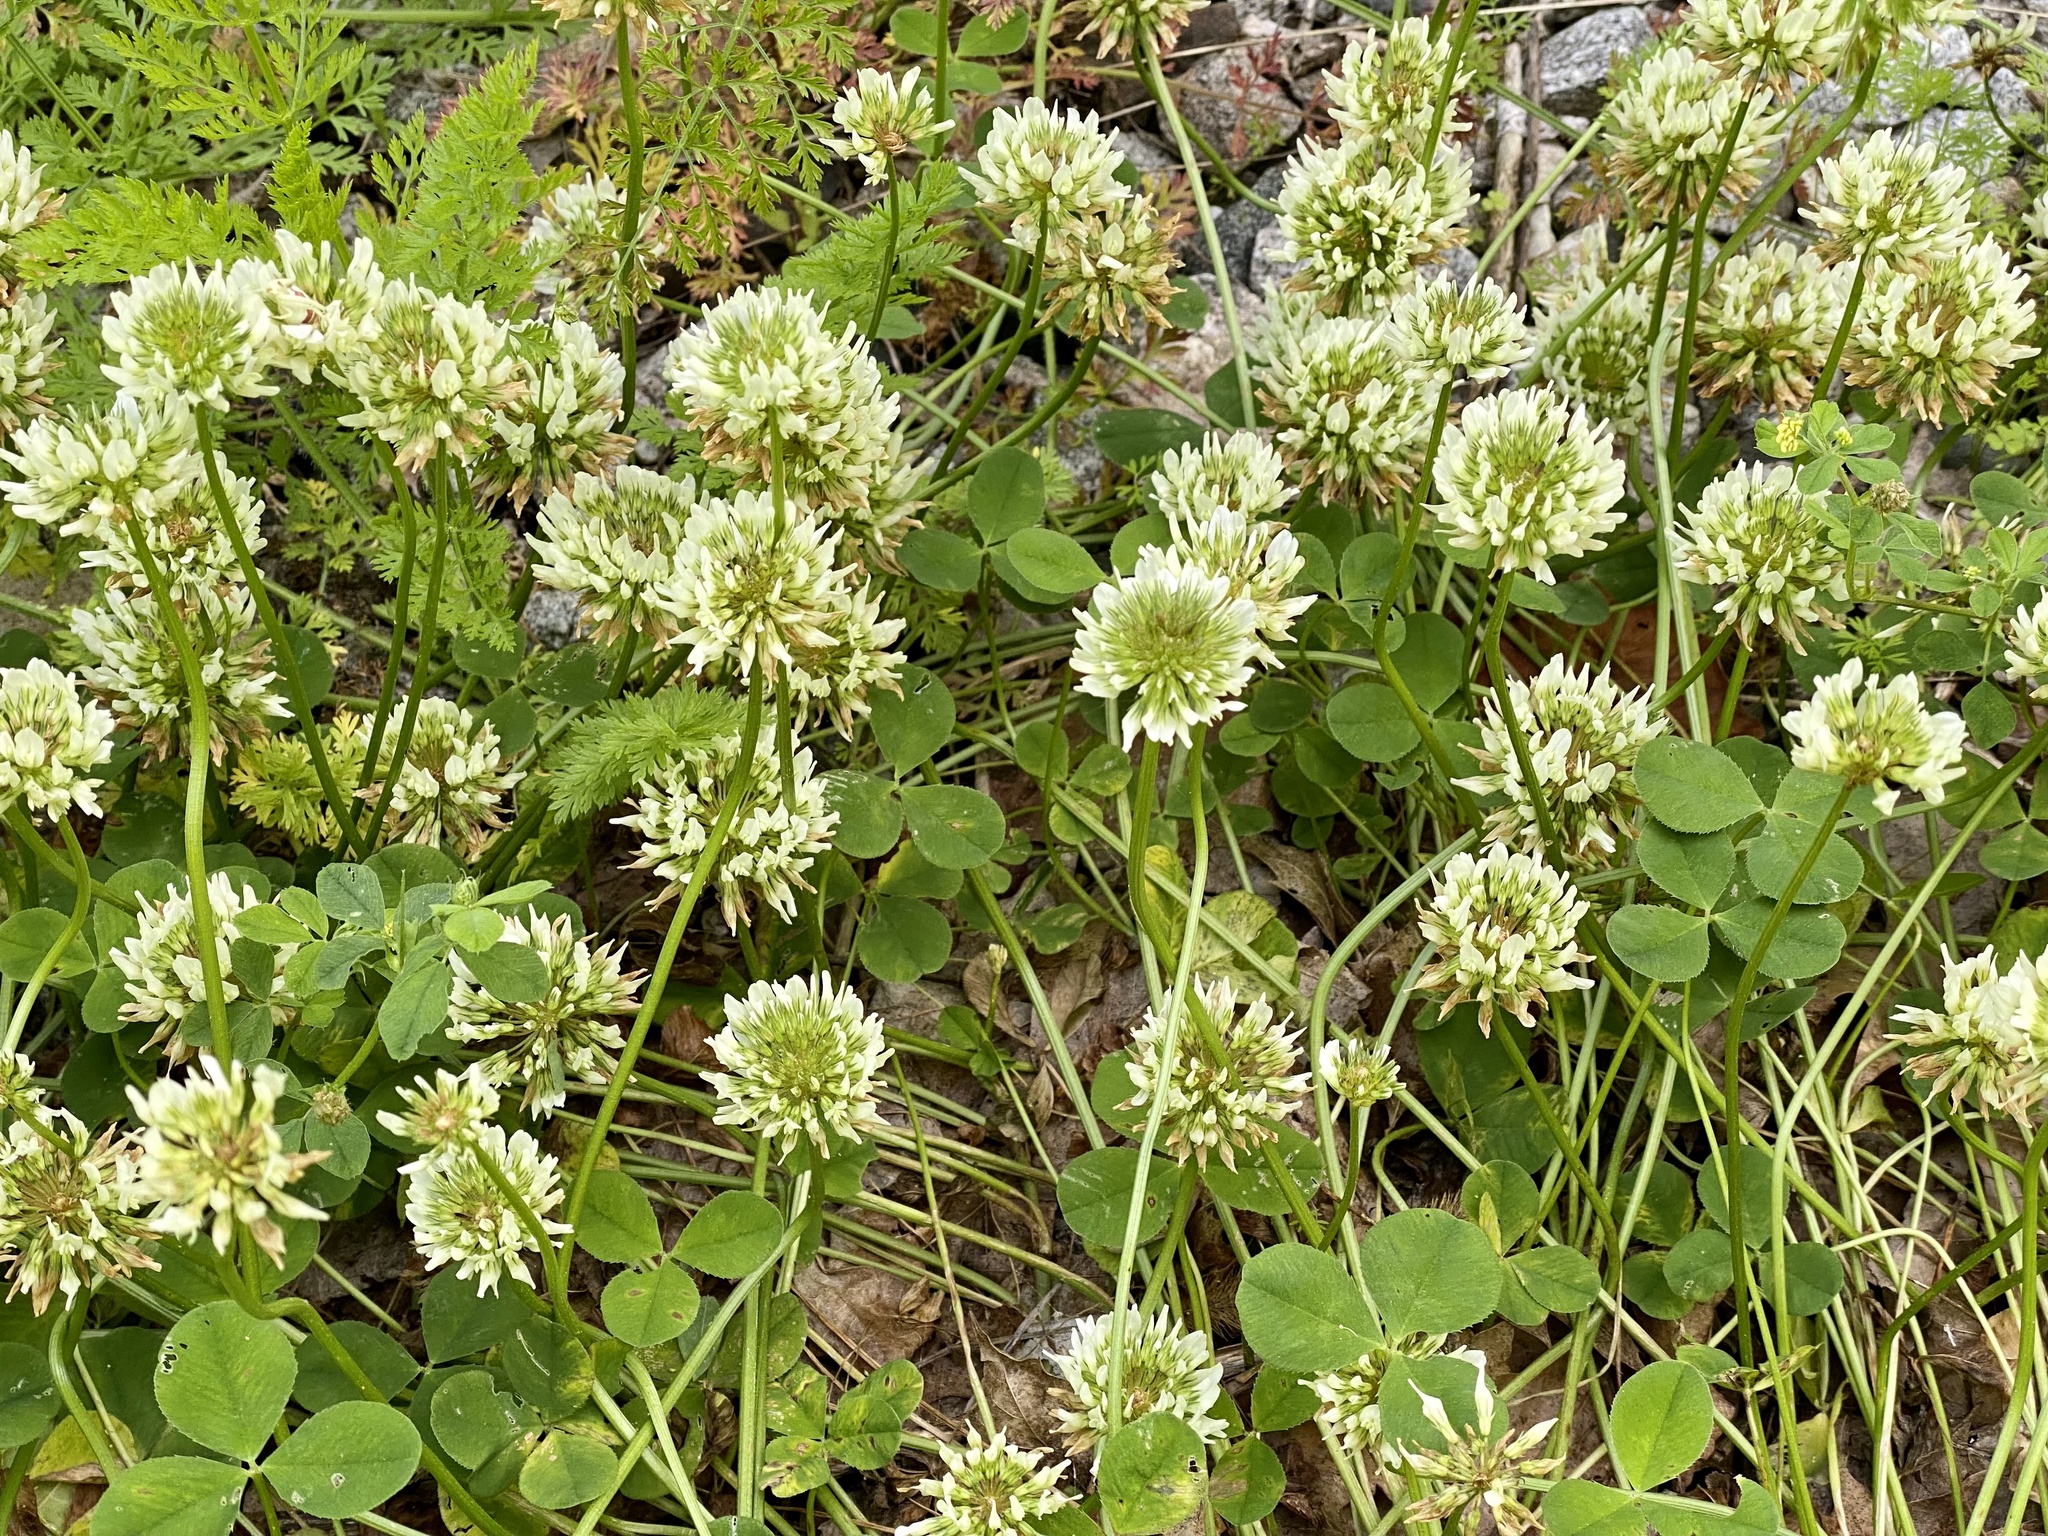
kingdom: Plantae
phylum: Tracheophyta
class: Magnoliopsida
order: Fabales
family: Fabaceae
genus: Trifolium
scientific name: Trifolium repens
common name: White clover
